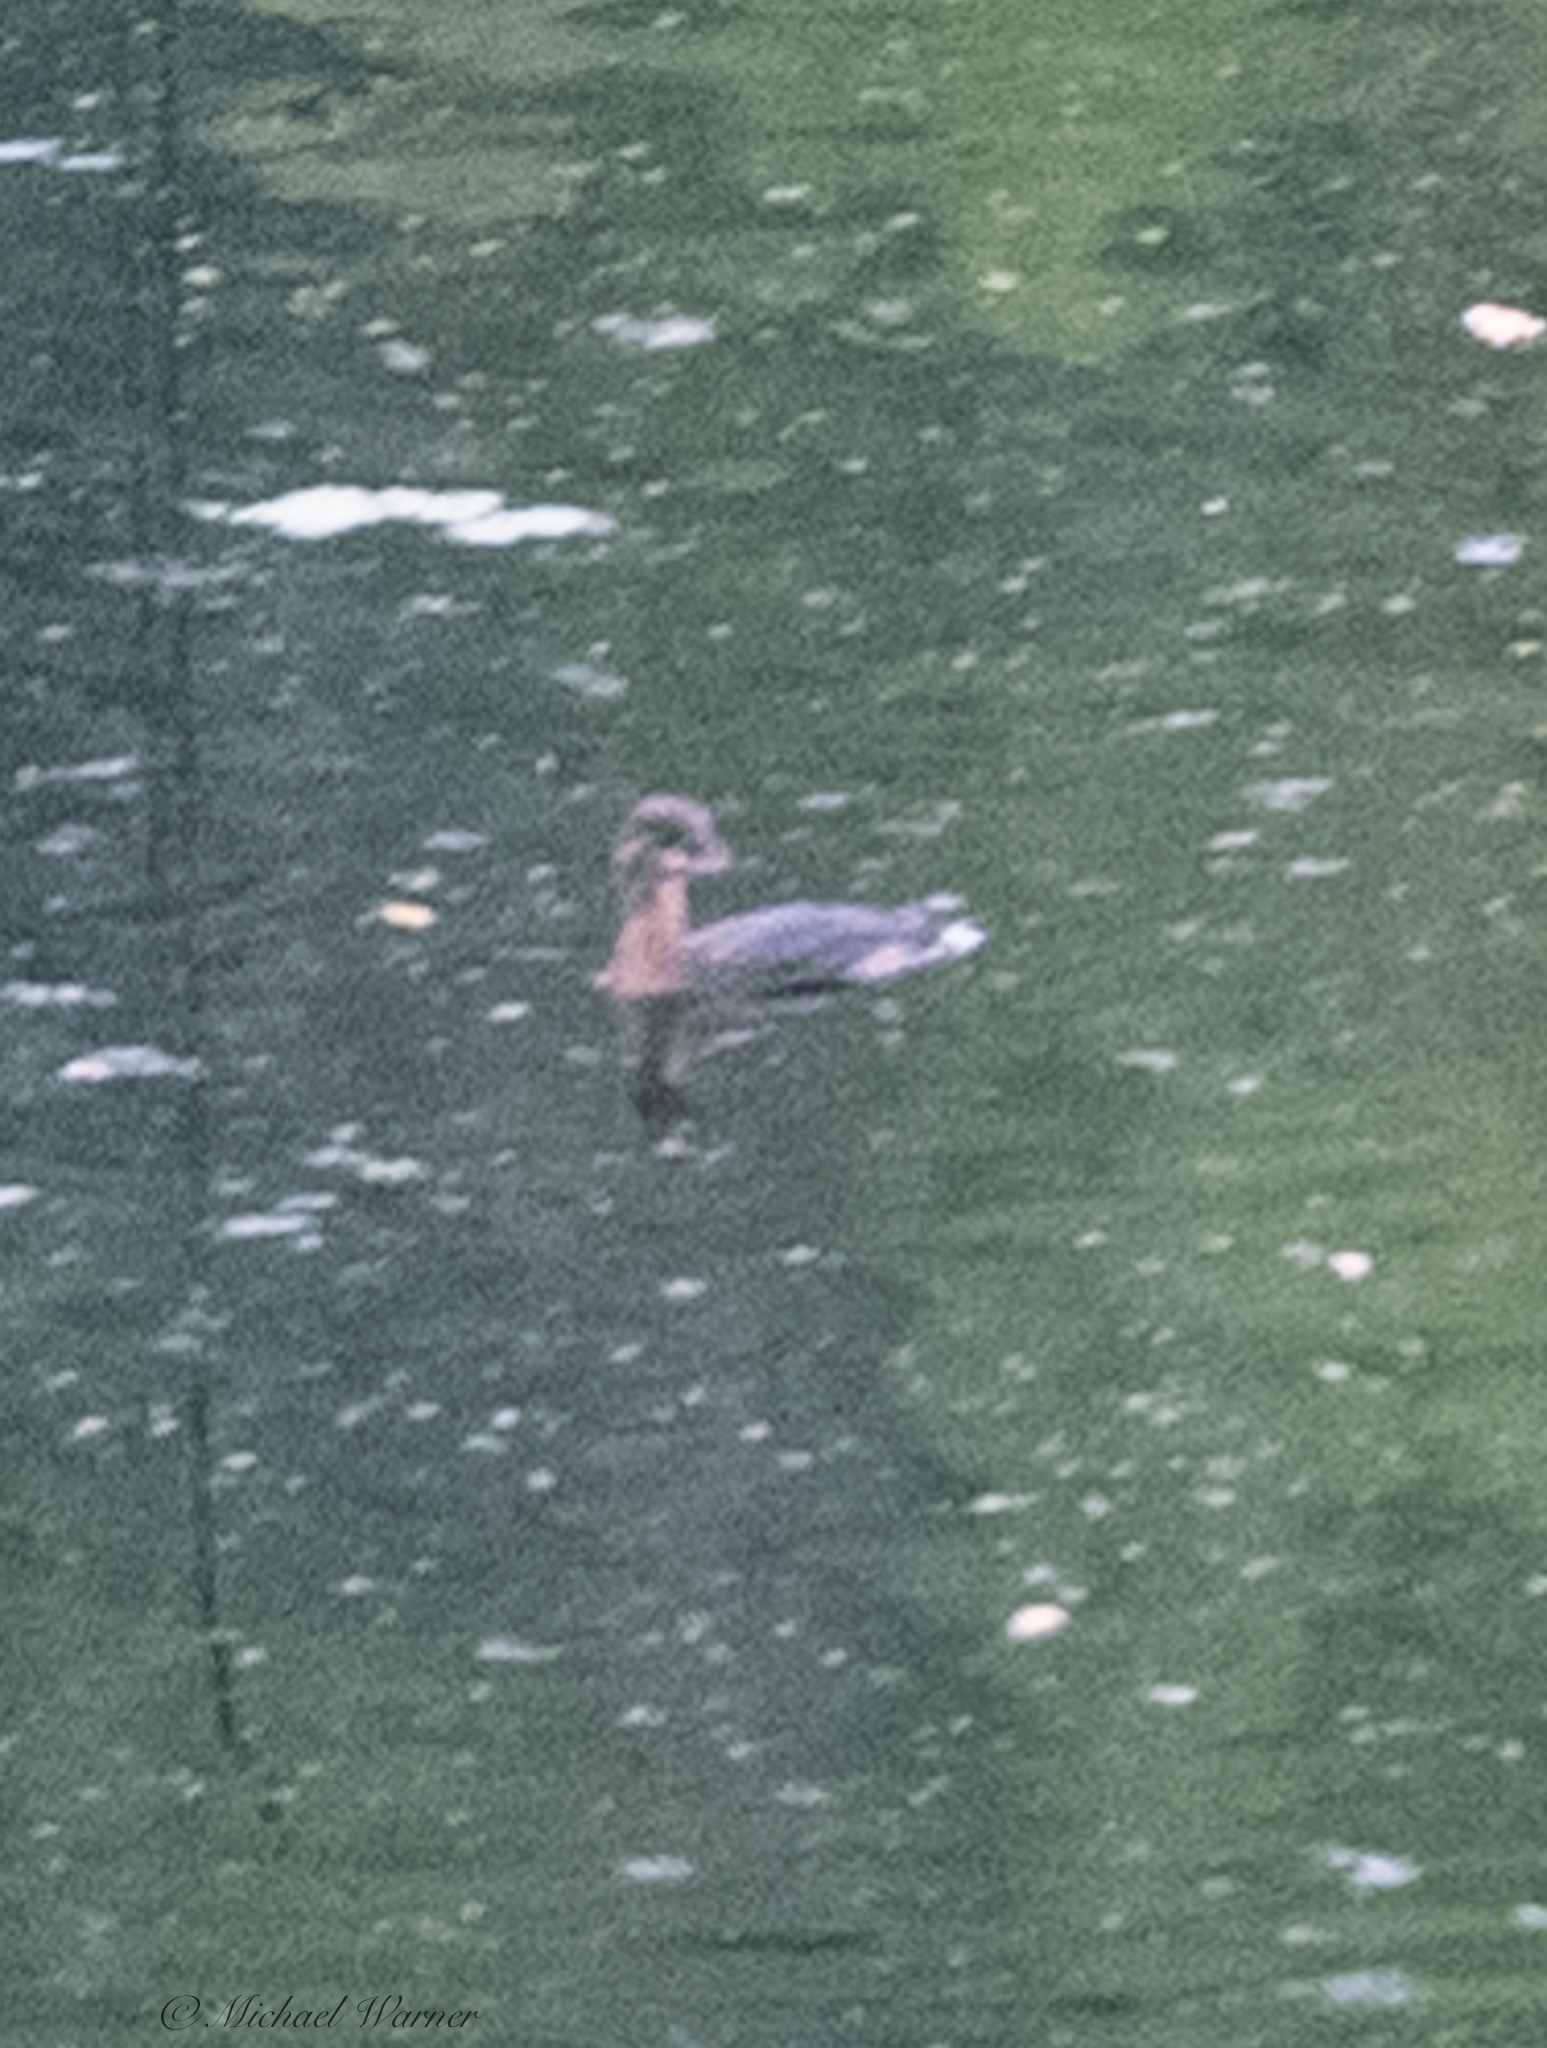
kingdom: Animalia
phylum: Chordata
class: Aves
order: Podicipediformes
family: Podicipedidae
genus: Podilymbus
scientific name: Podilymbus podiceps
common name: Pied-billed grebe
